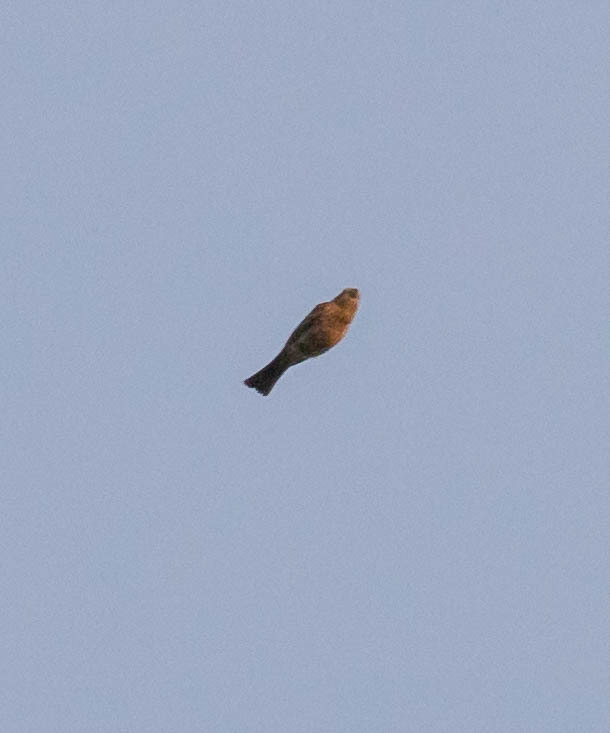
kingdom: Animalia
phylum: Chordata
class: Aves
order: Passeriformes
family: Fringillidae
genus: Haemorhous
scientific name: Haemorhous mexicanus
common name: House finch
